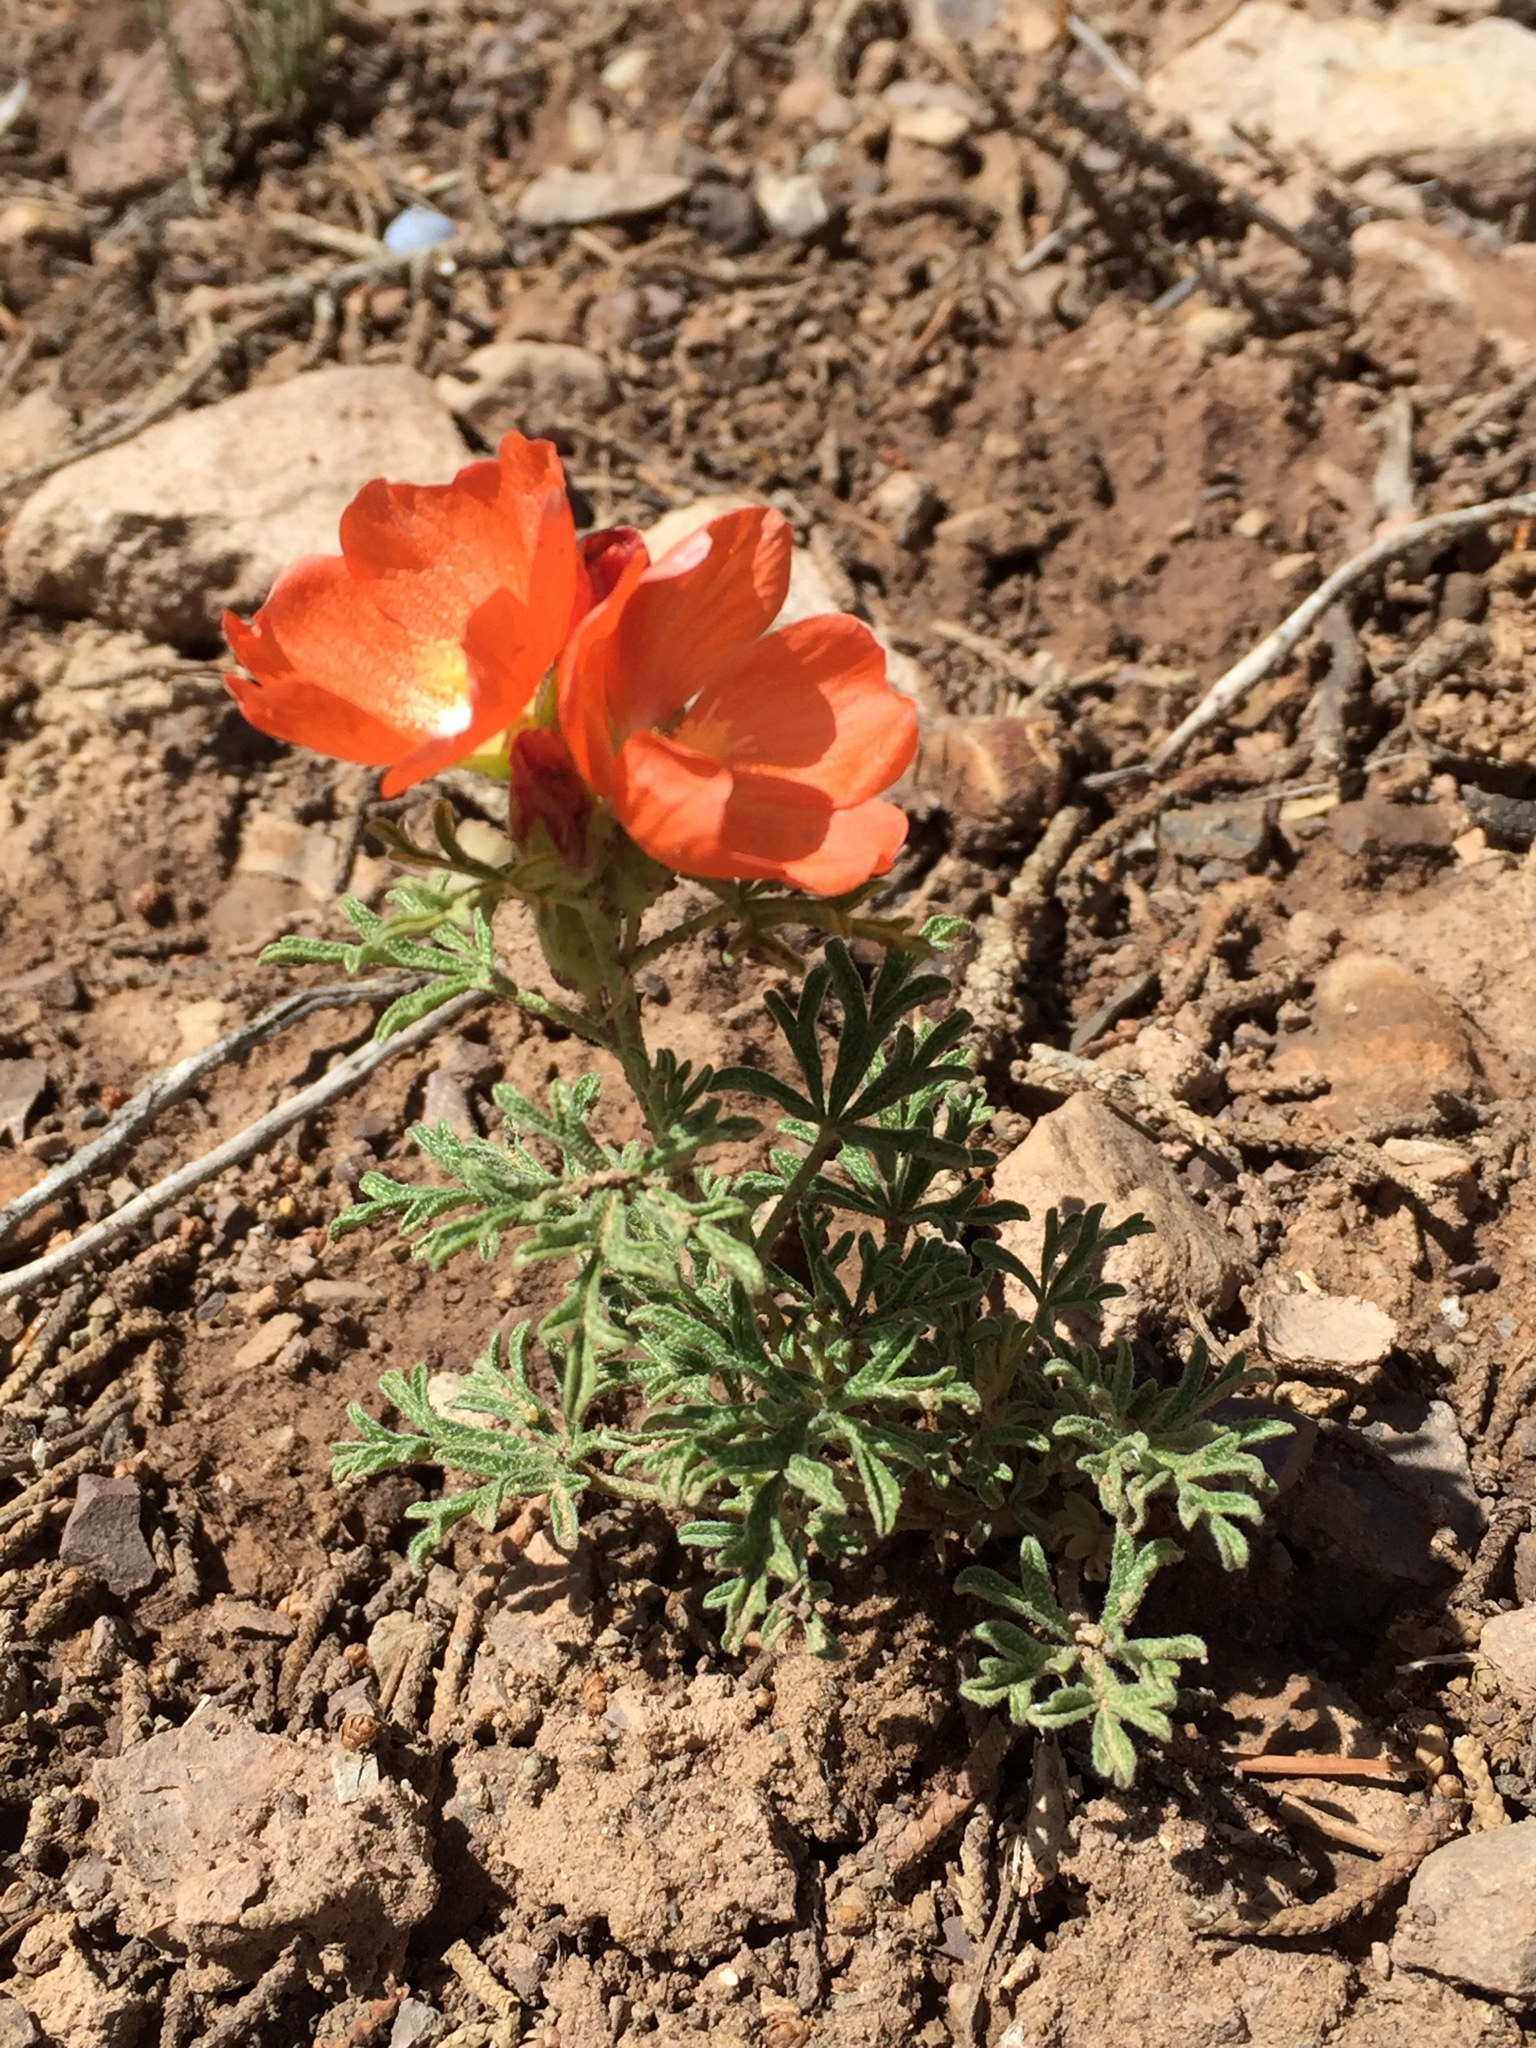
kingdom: Plantae
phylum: Tracheophyta
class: Magnoliopsida
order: Malvales
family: Malvaceae
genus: Sphaeralcea
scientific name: Sphaeralcea coccinea
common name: Moss-rose
